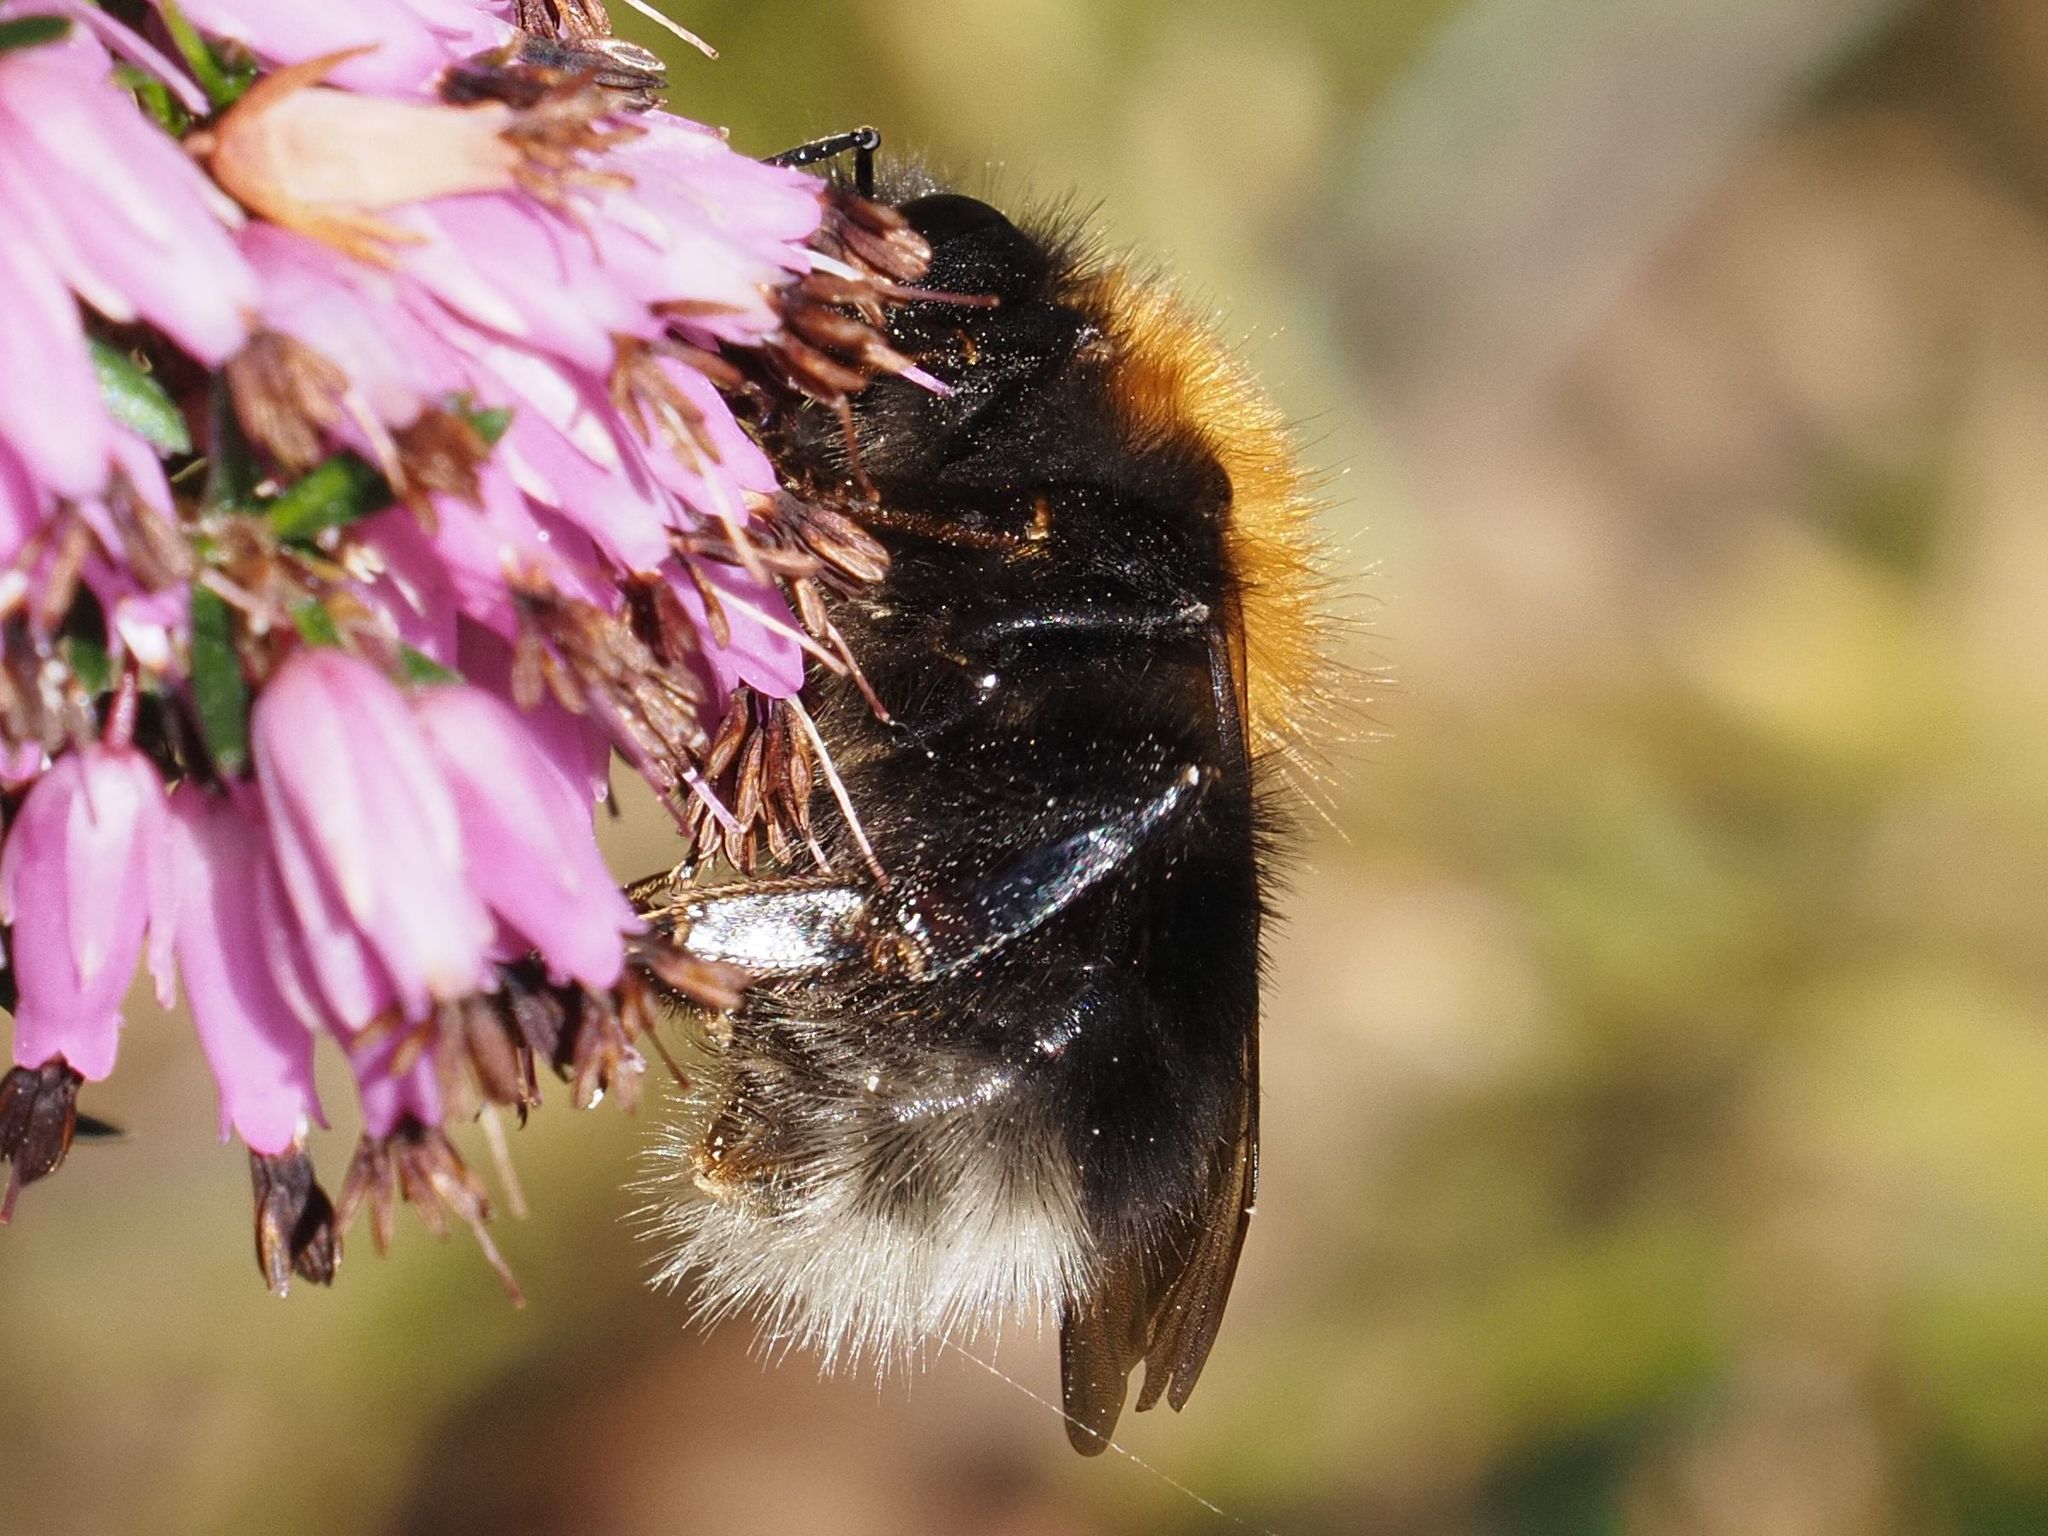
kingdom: Animalia
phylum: Arthropoda
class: Insecta
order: Hymenoptera
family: Apidae
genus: Bombus
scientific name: Bombus hypnorum
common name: New garden bumblebee
